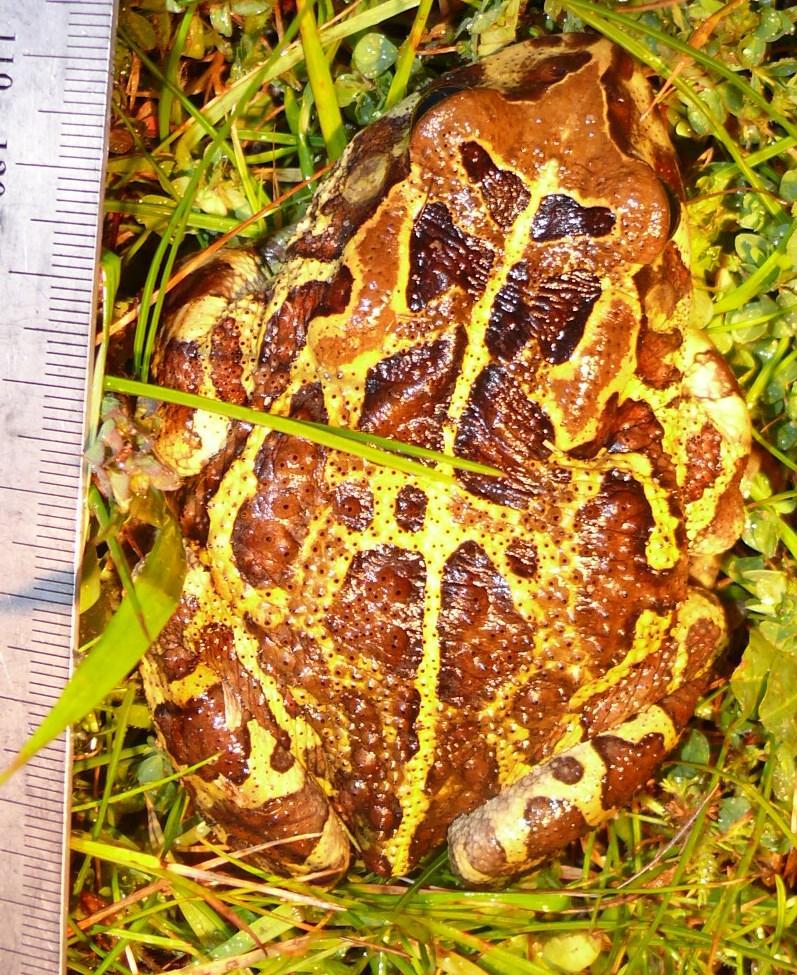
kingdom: Animalia
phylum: Chordata
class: Amphibia
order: Anura
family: Bufonidae
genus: Sclerophrys
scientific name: Sclerophrys pantherina
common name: Panther toad
